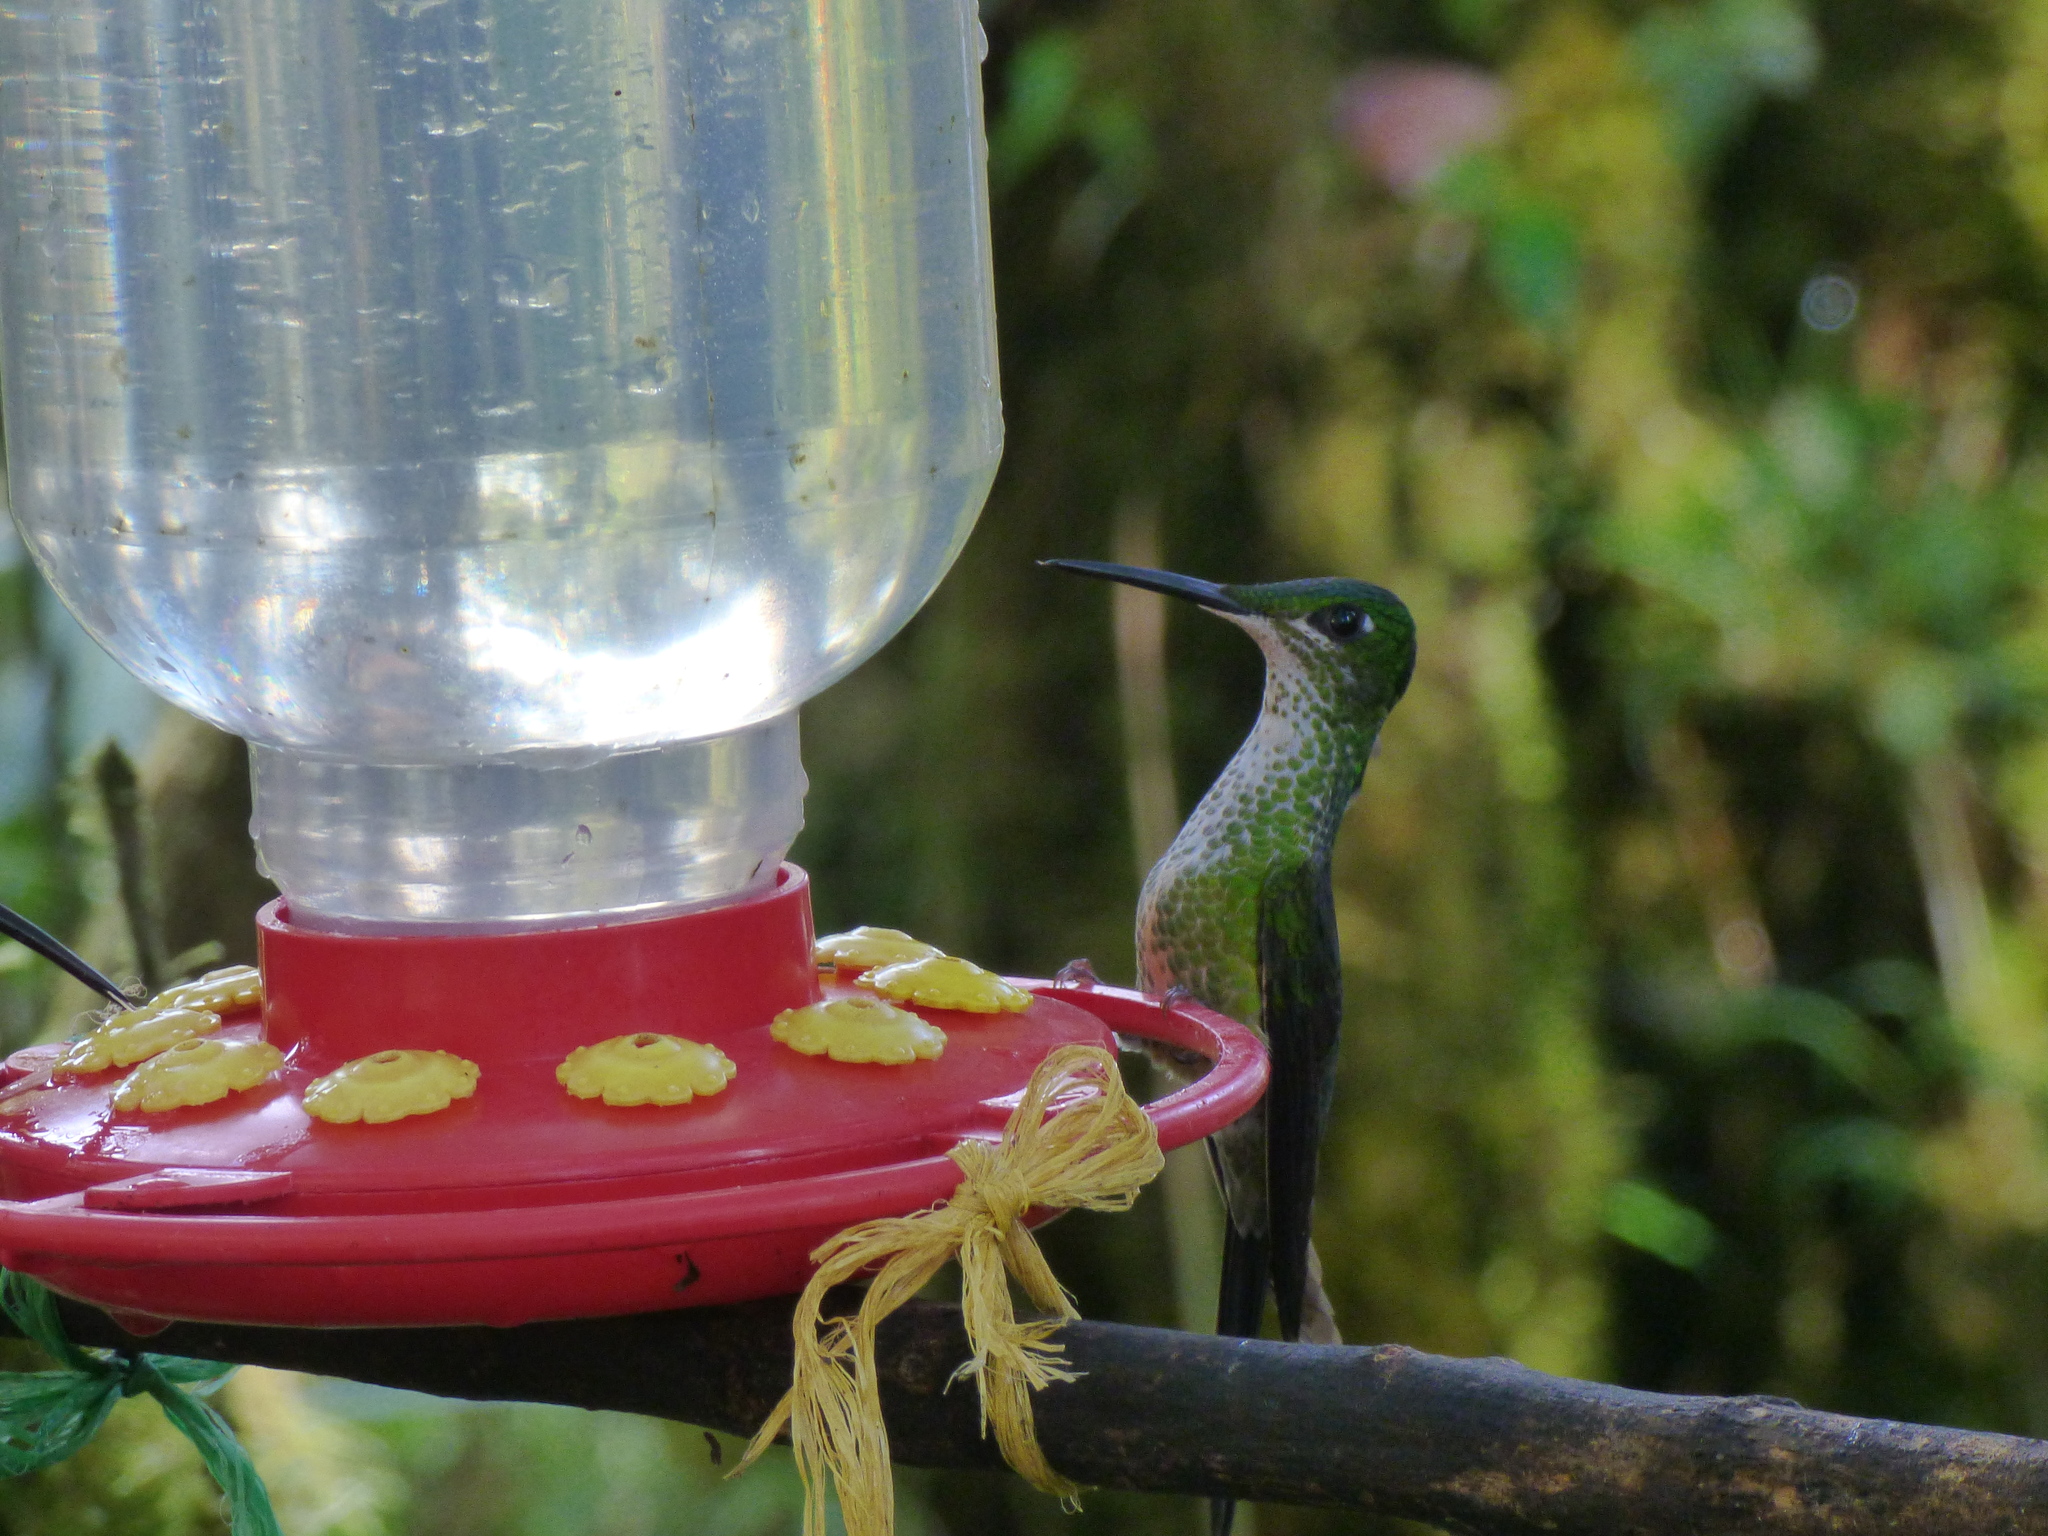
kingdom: Animalia
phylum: Chordata
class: Aves
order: Apodiformes
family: Trochilidae
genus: Heliodoxa
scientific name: Heliodoxa imperatrix
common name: Empress brilliant
